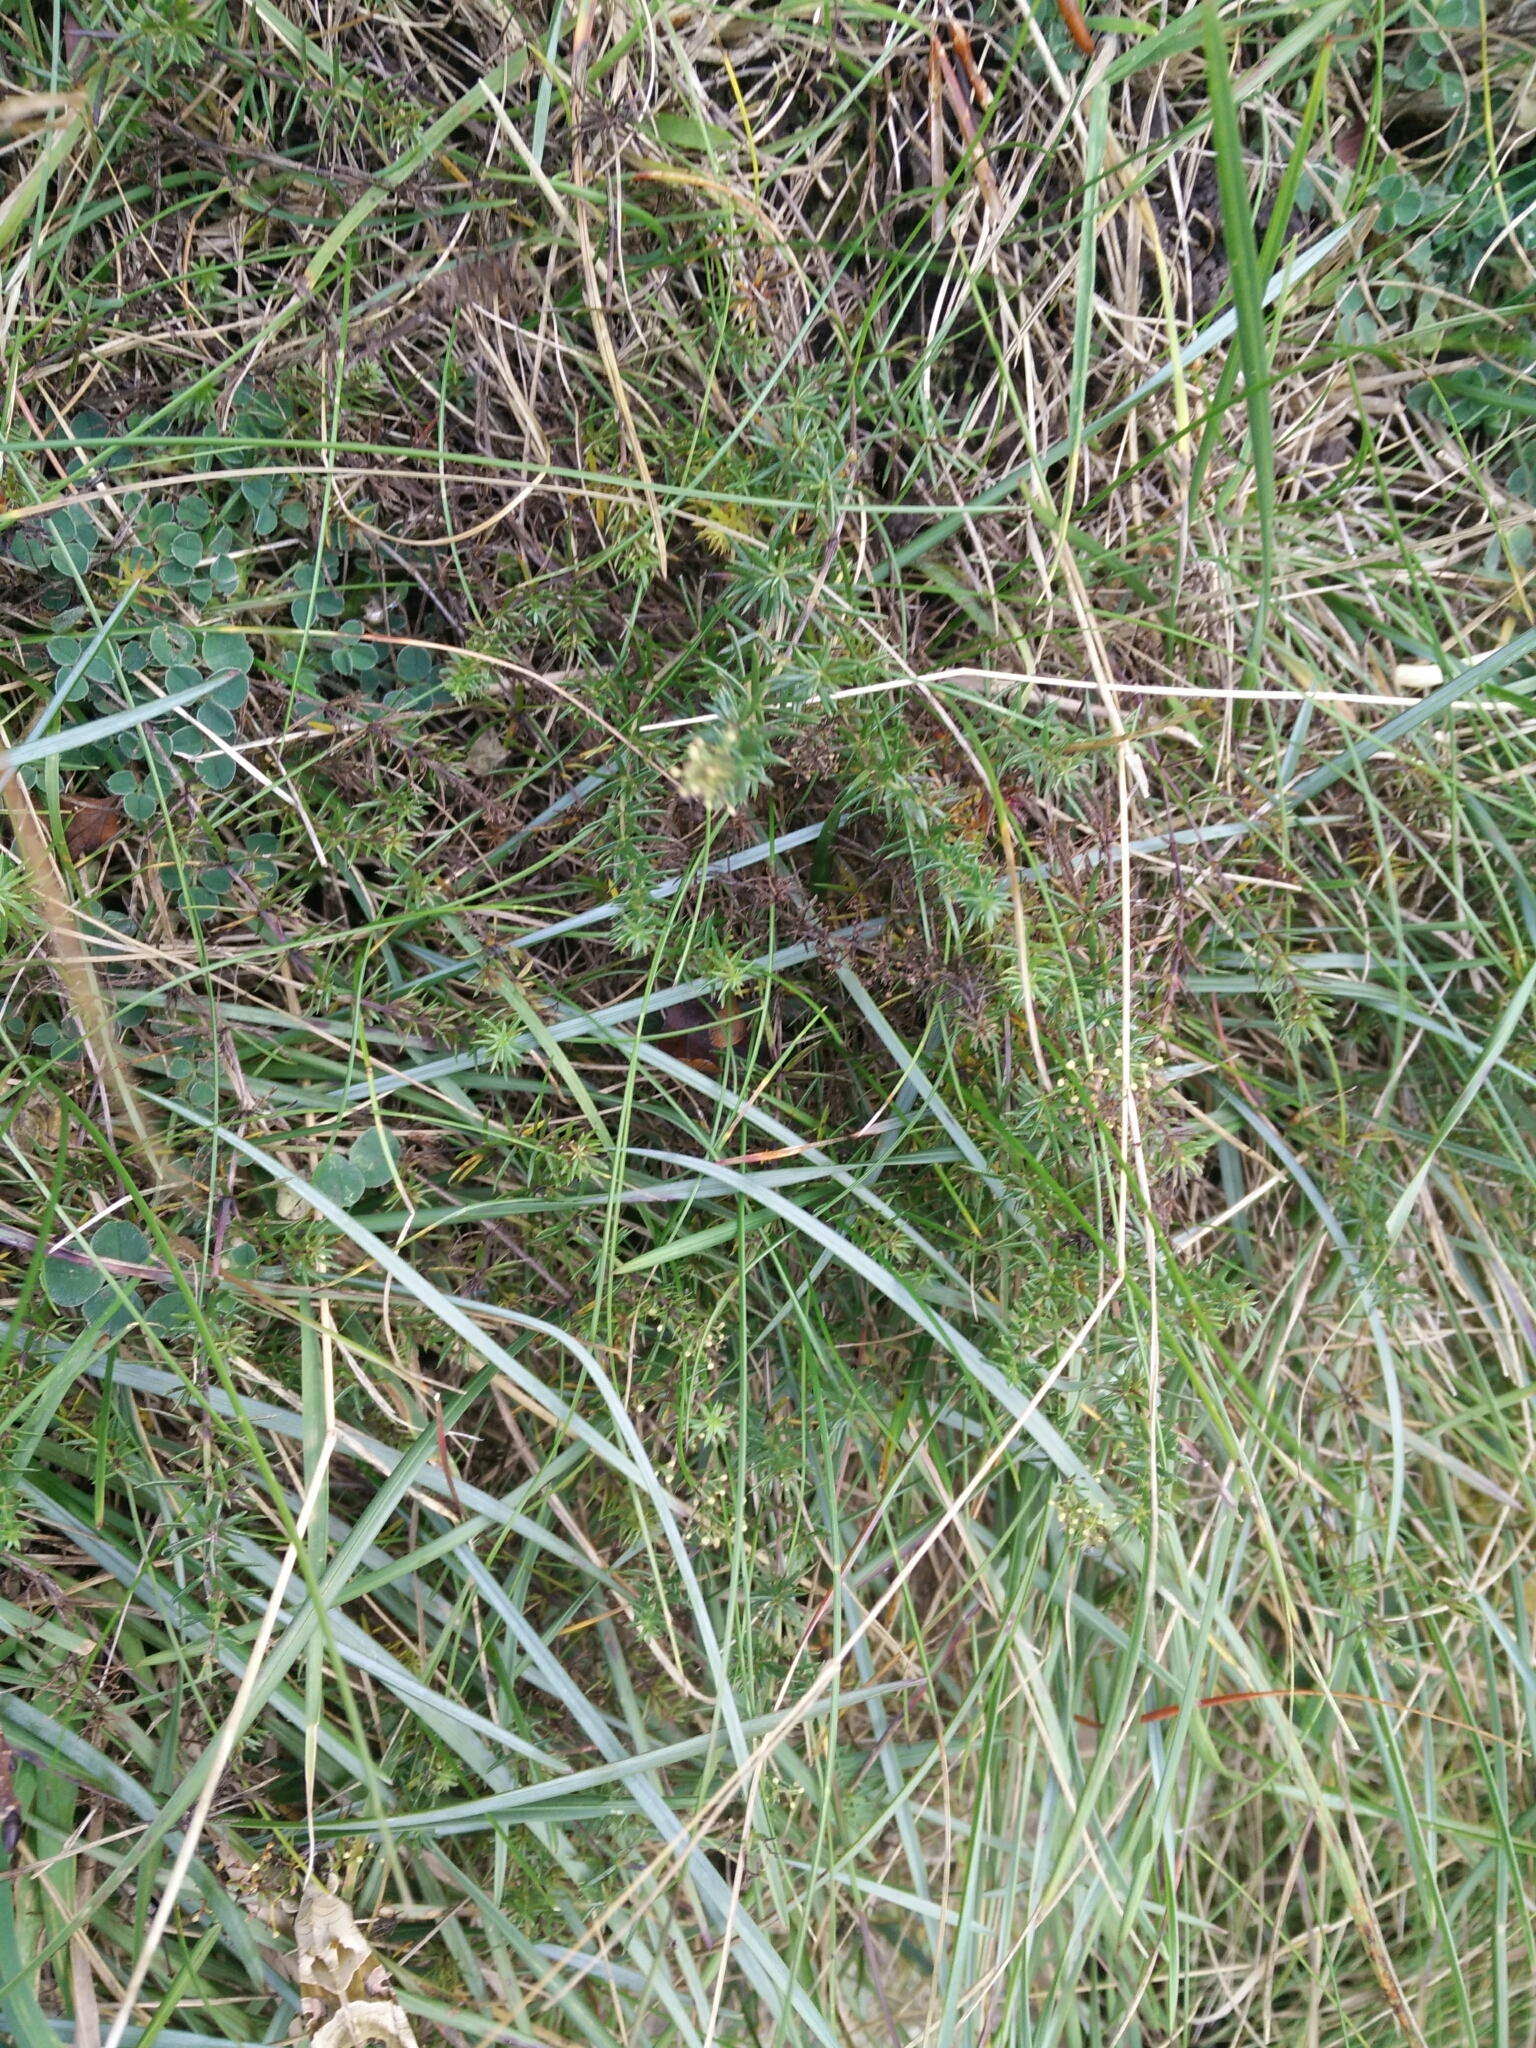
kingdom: Plantae
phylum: Tracheophyta
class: Magnoliopsida
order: Gentianales
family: Rubiaceae
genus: Galium
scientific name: Galium verum
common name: Lady's bedstraw
